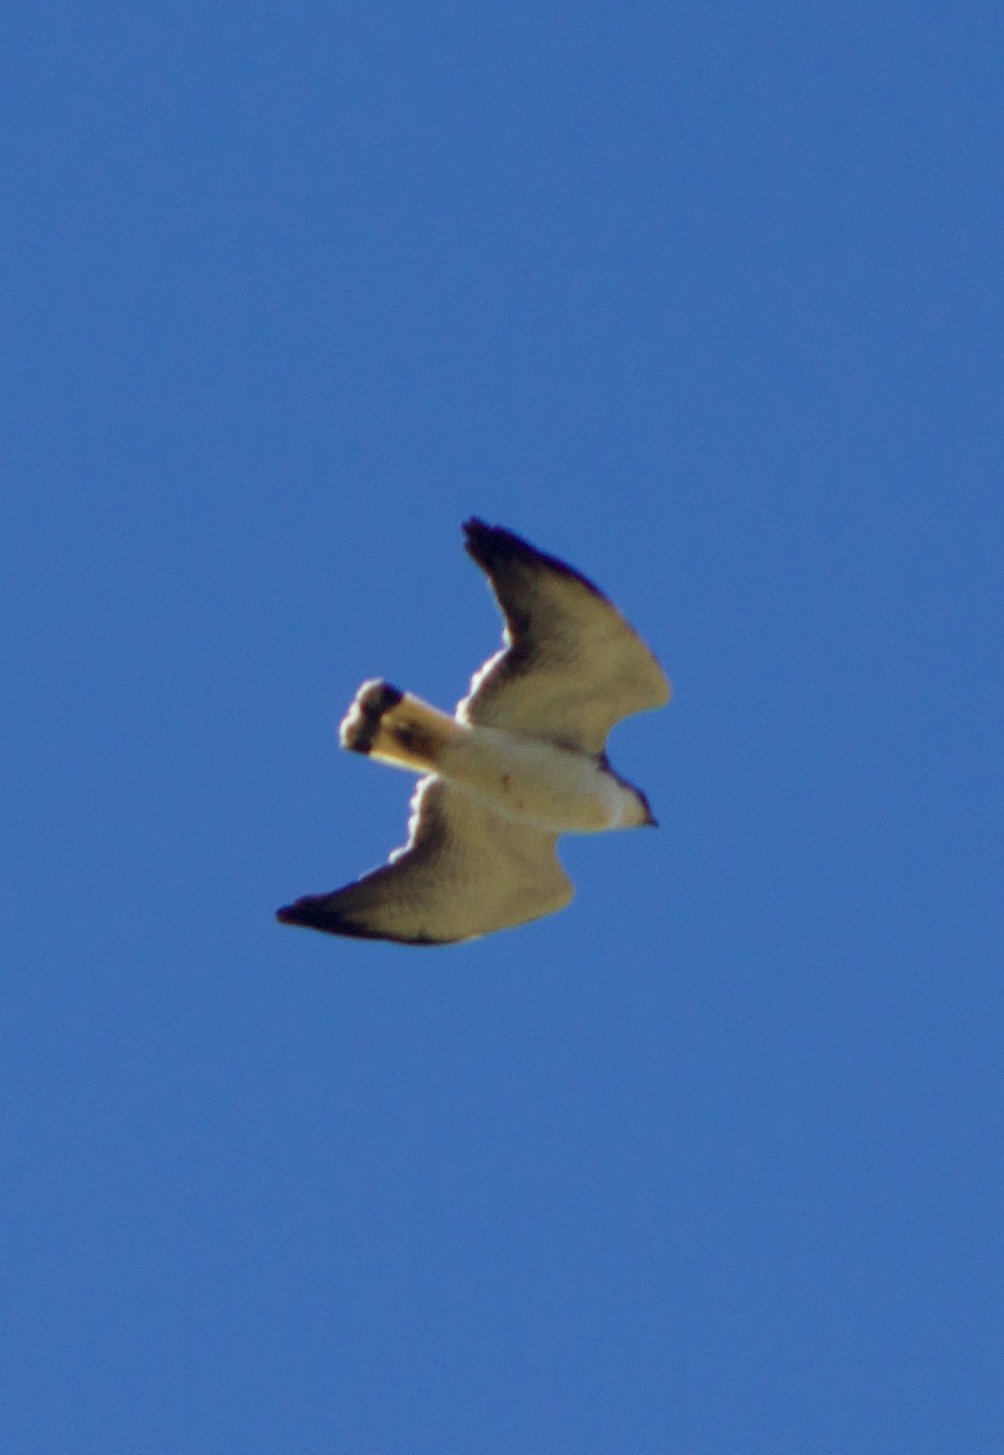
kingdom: Animalia
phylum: Chordata
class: Aves
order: Accipitriformes
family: Accipitridae
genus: Buteo
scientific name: Buteo polyosoma
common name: Variable hawk
